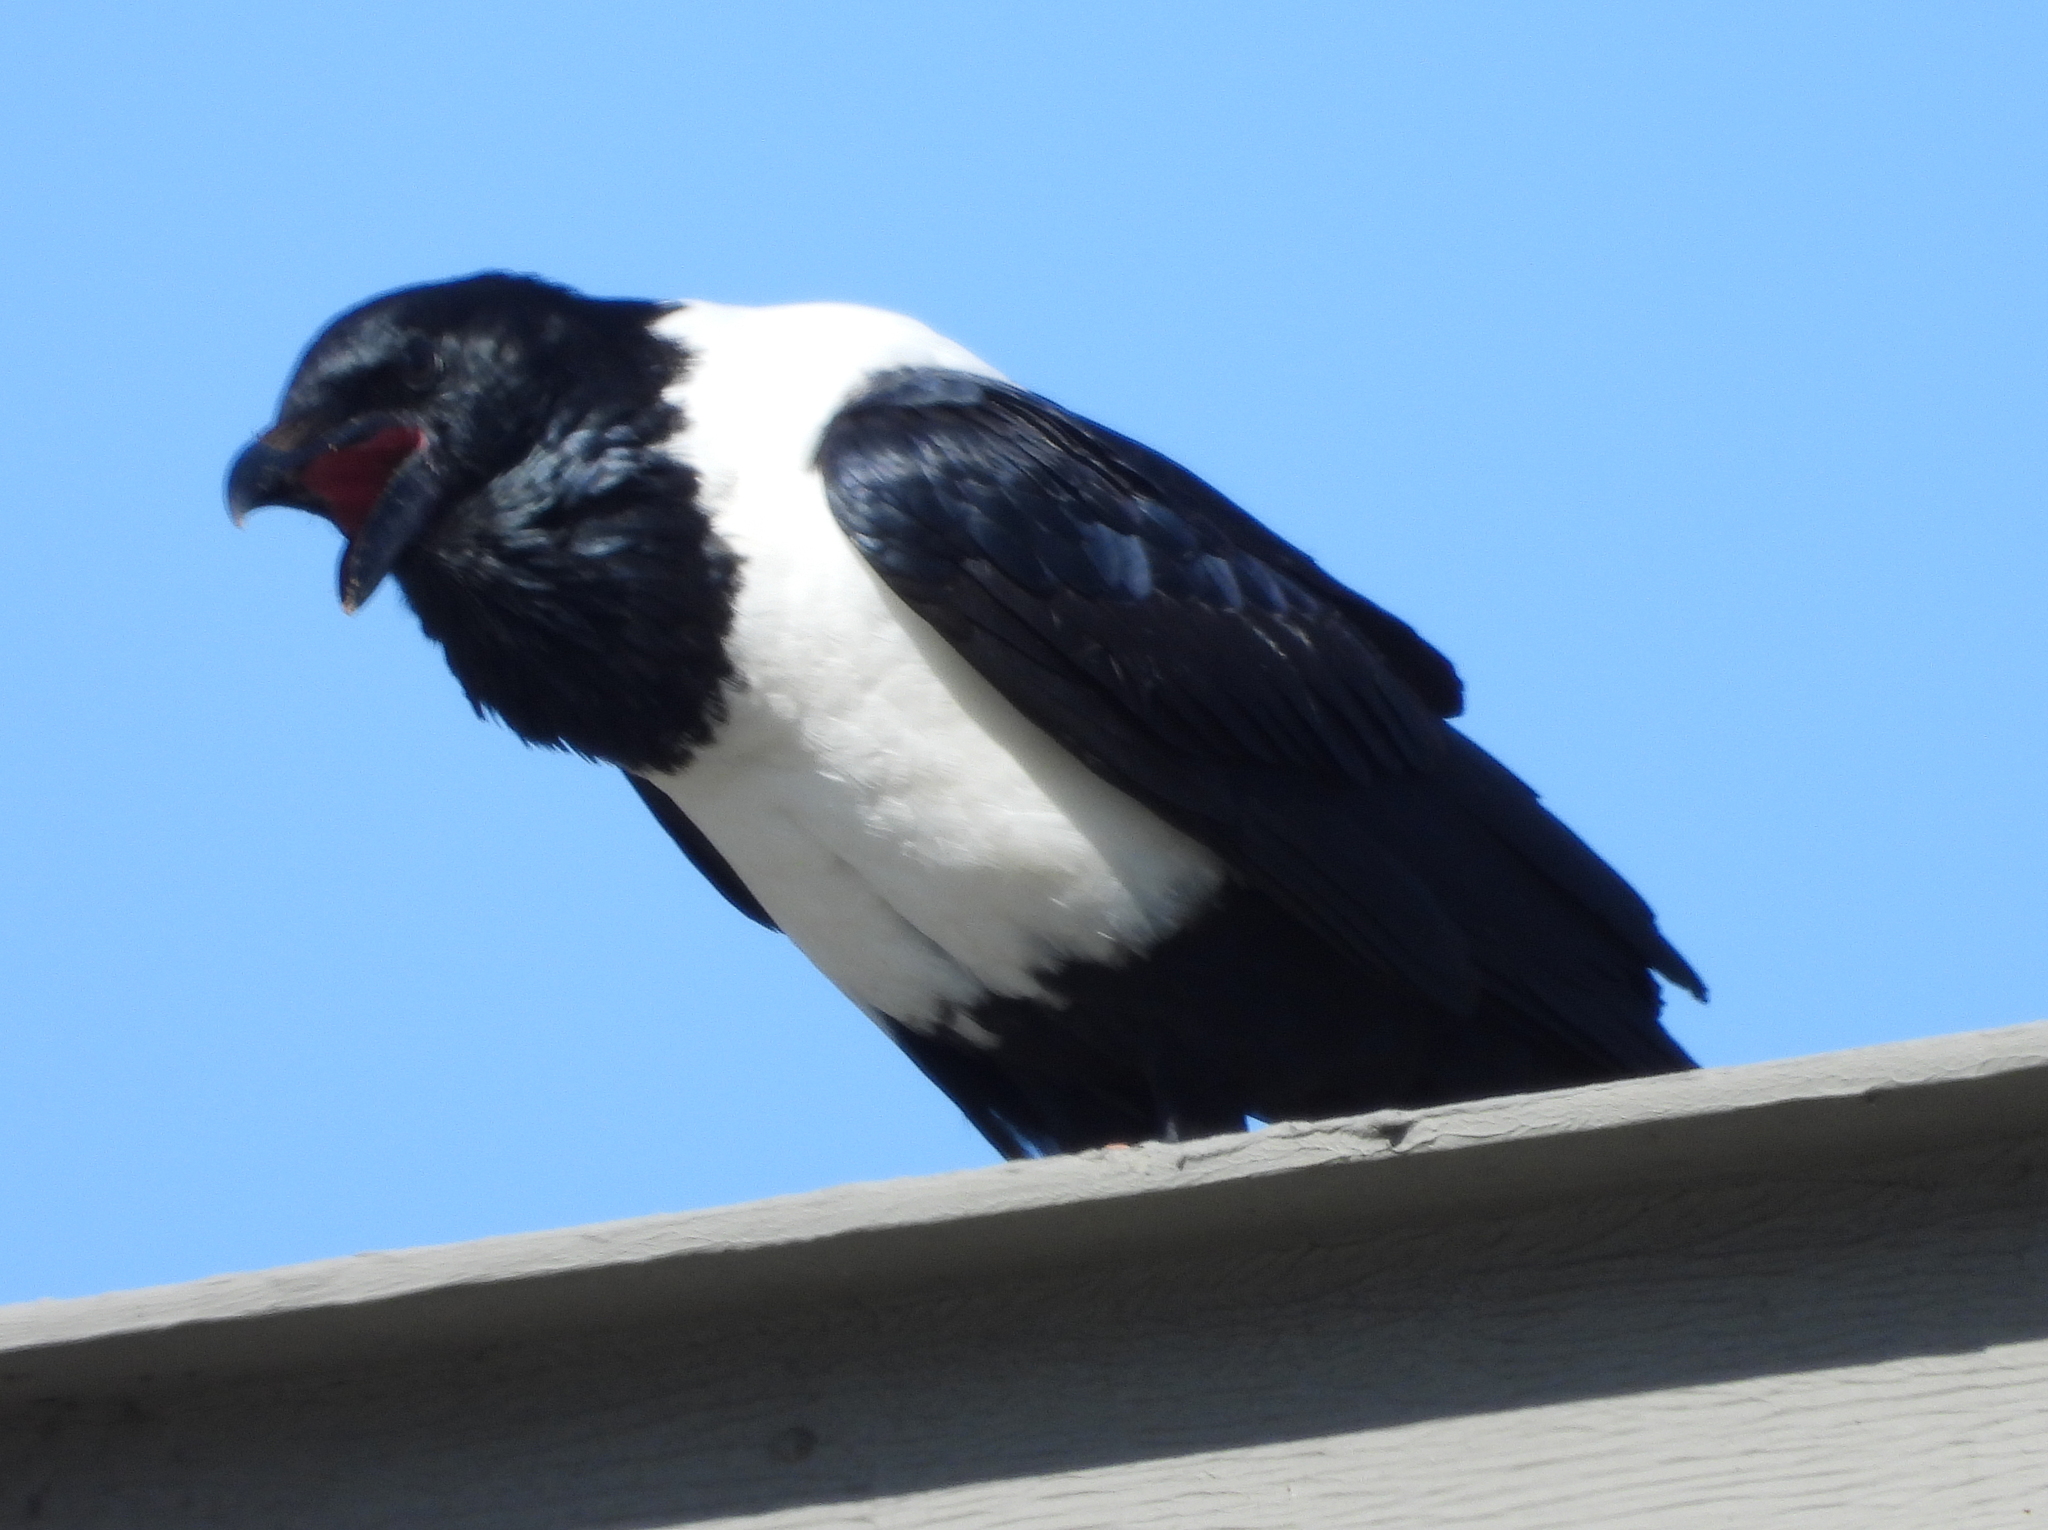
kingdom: Animalia
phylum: Chordata
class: Aves
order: Passeriformes
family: Corvidae
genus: Corvus
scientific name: Corvus albus
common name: Pied crow
